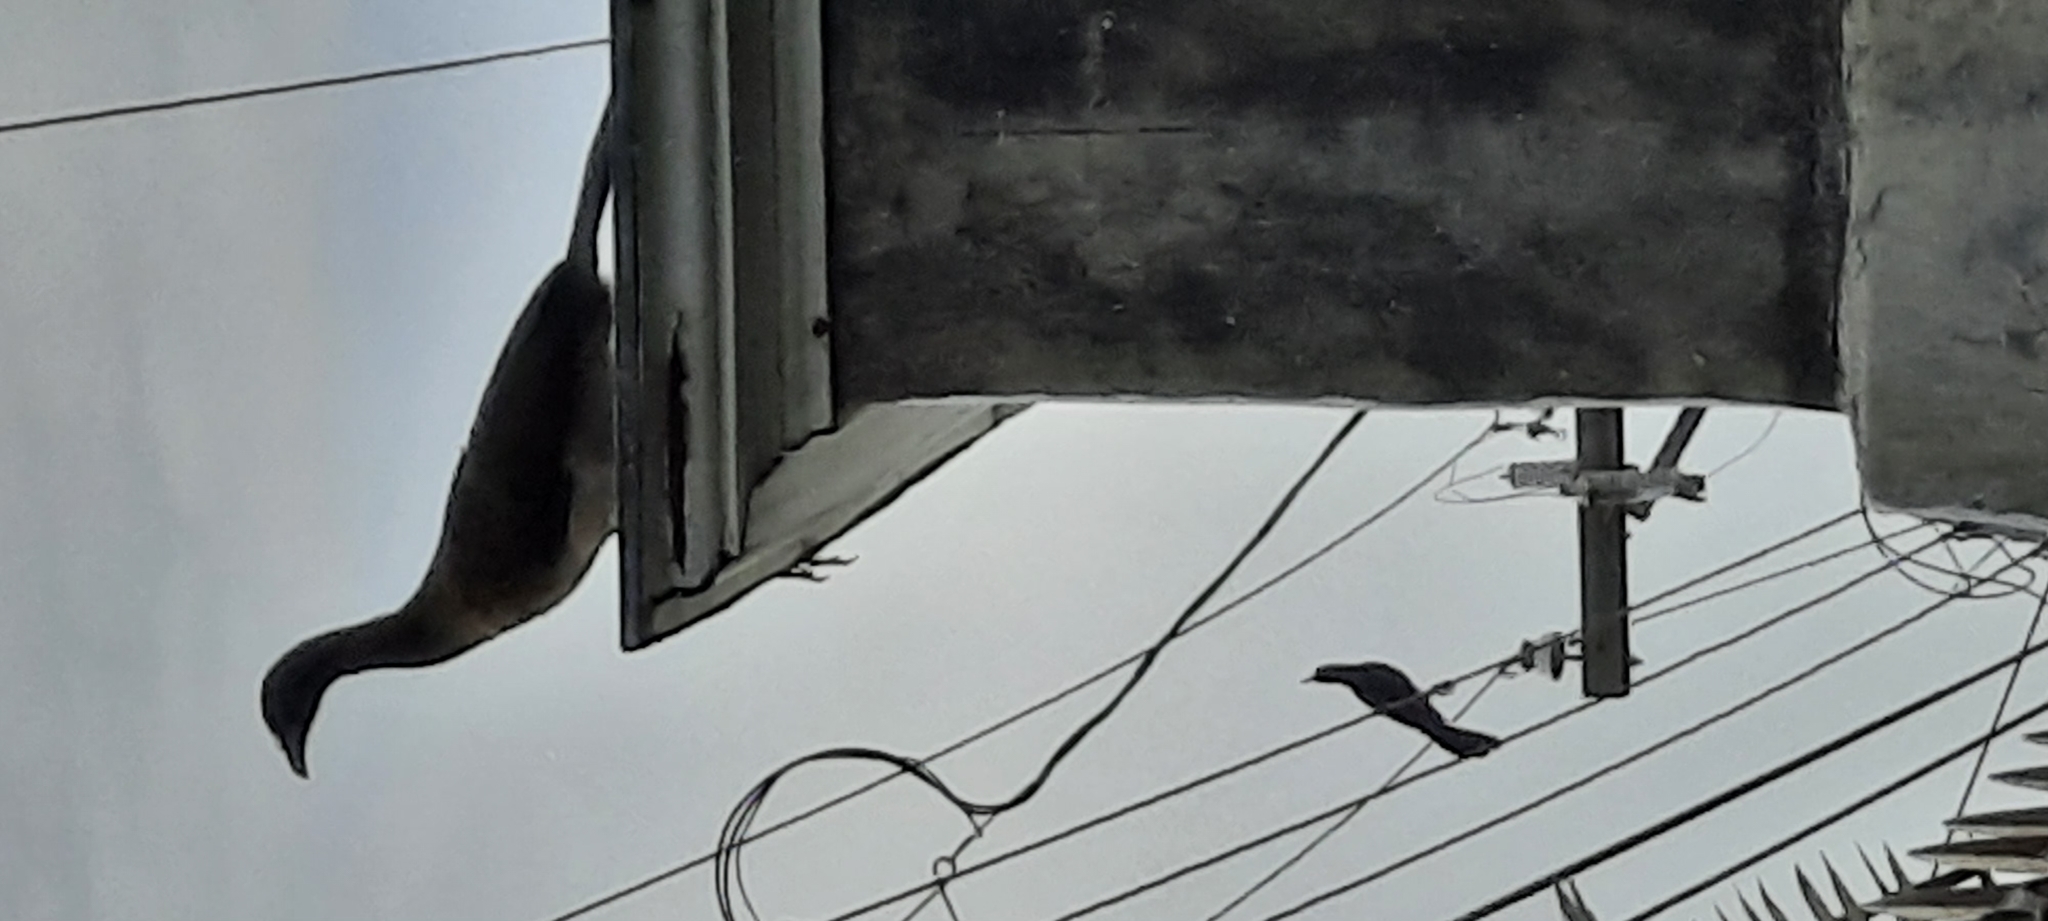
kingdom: Animalia
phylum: Chordata
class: Aves
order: Galliformes
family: Cracidae
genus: Ortalis
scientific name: Ortalis cinereiceps
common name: Grey-headed chachalaca
